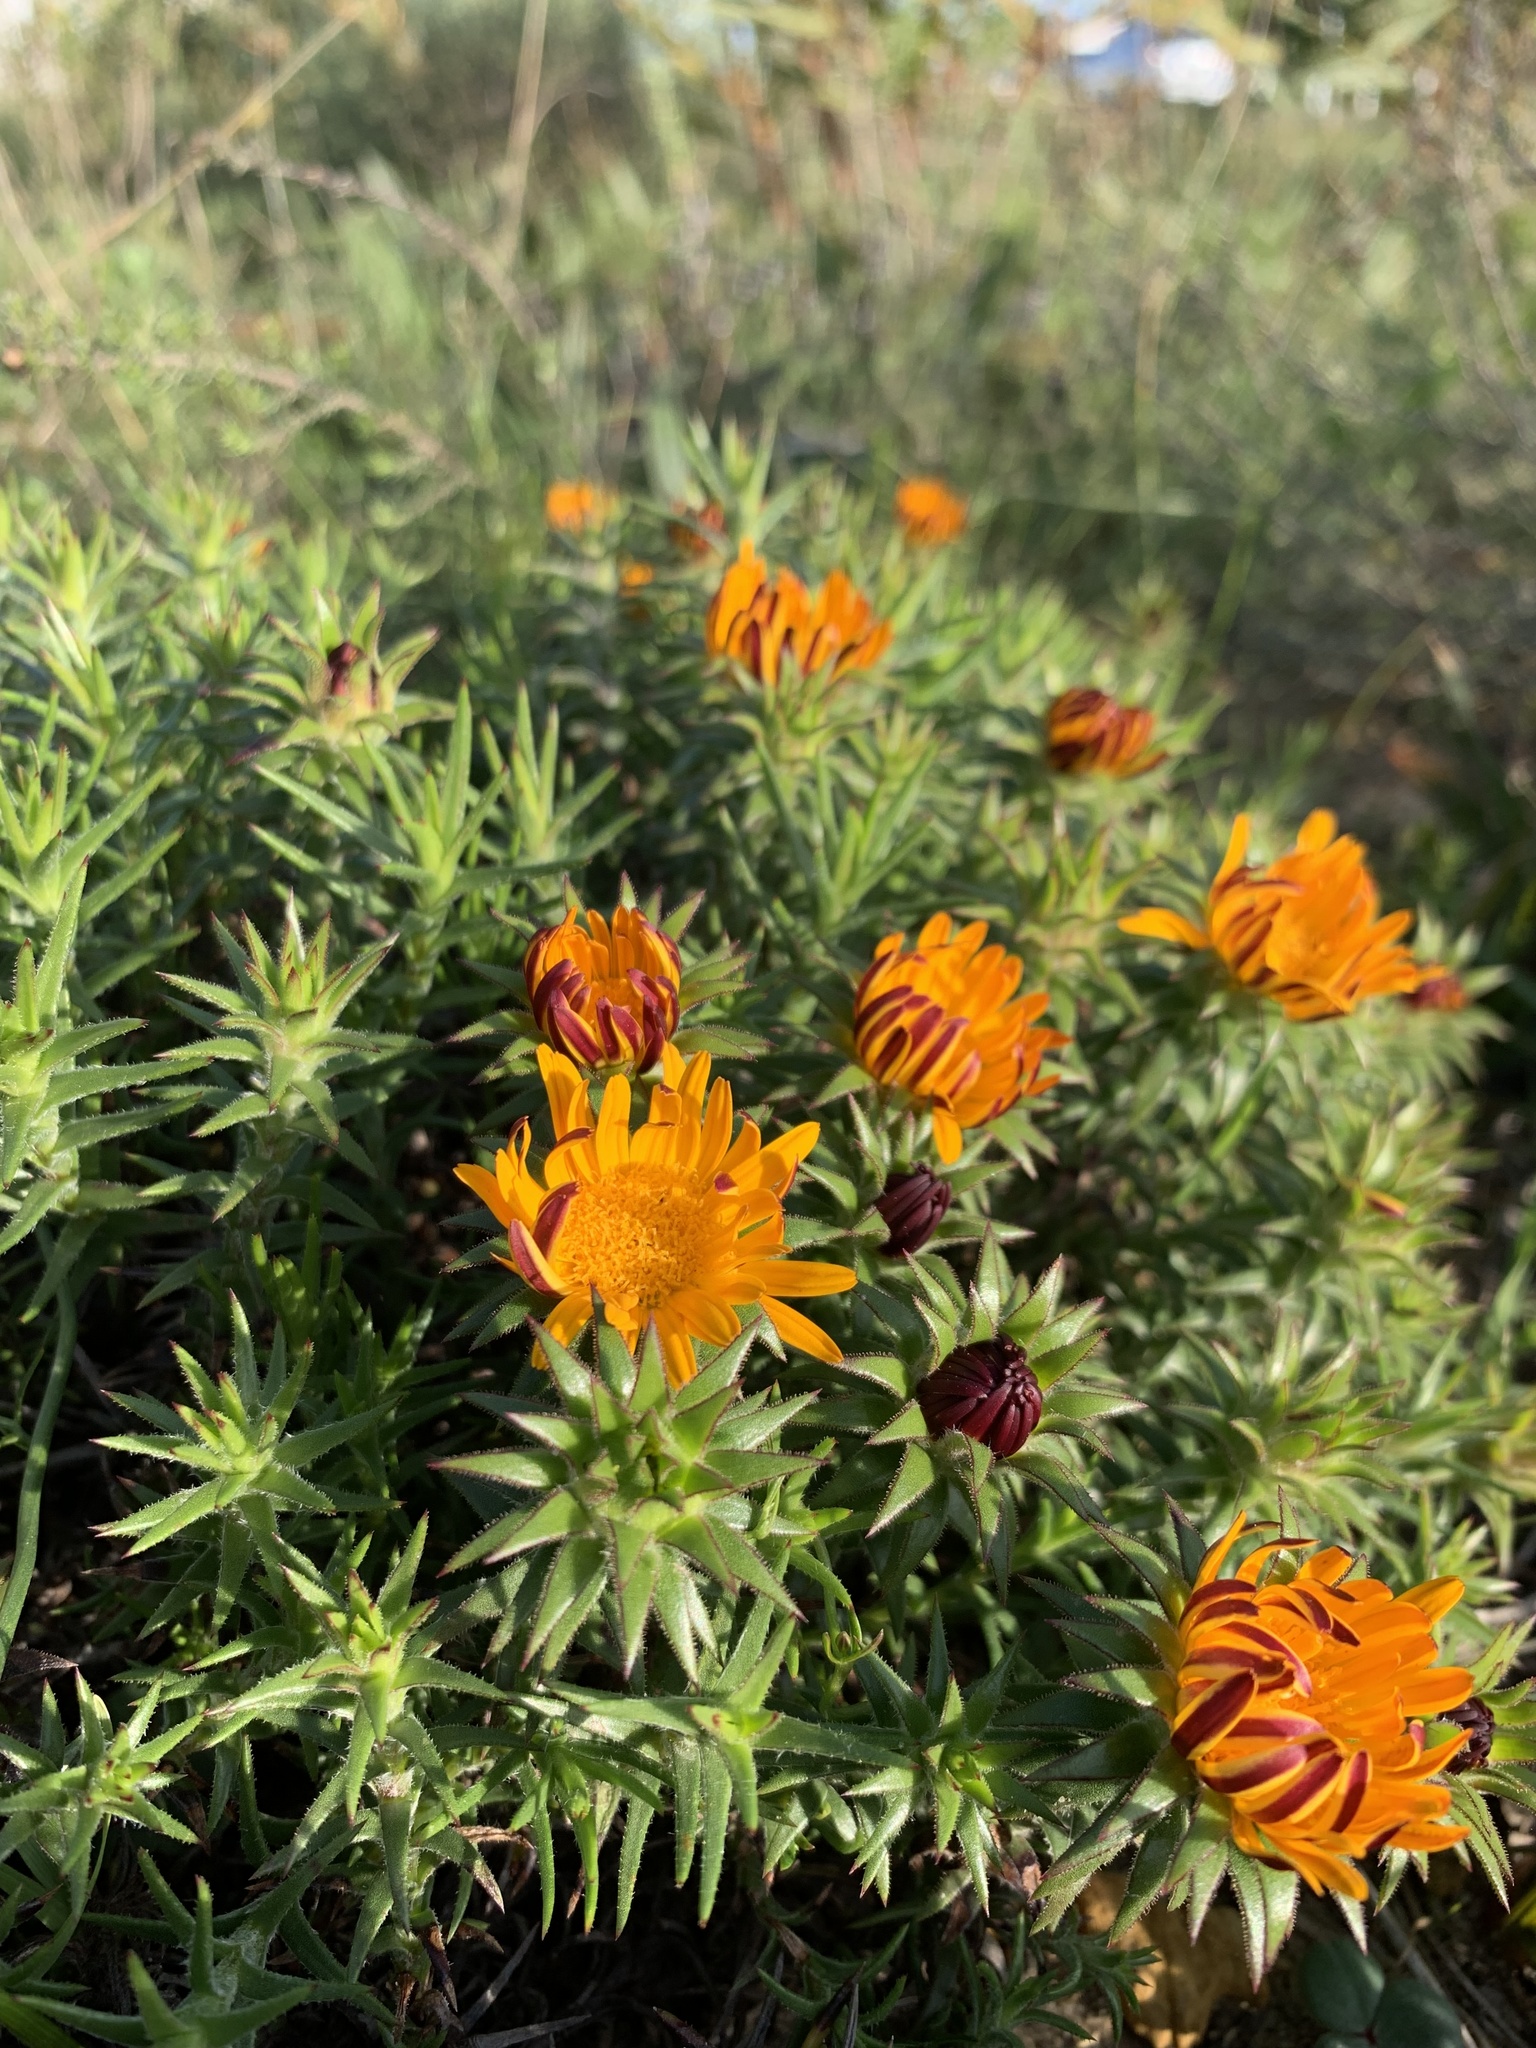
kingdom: Plantae
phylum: Tracheophyta
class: Magnoliopsida
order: Asterales
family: Asteraceae
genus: Oedera
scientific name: Oedera capensis
